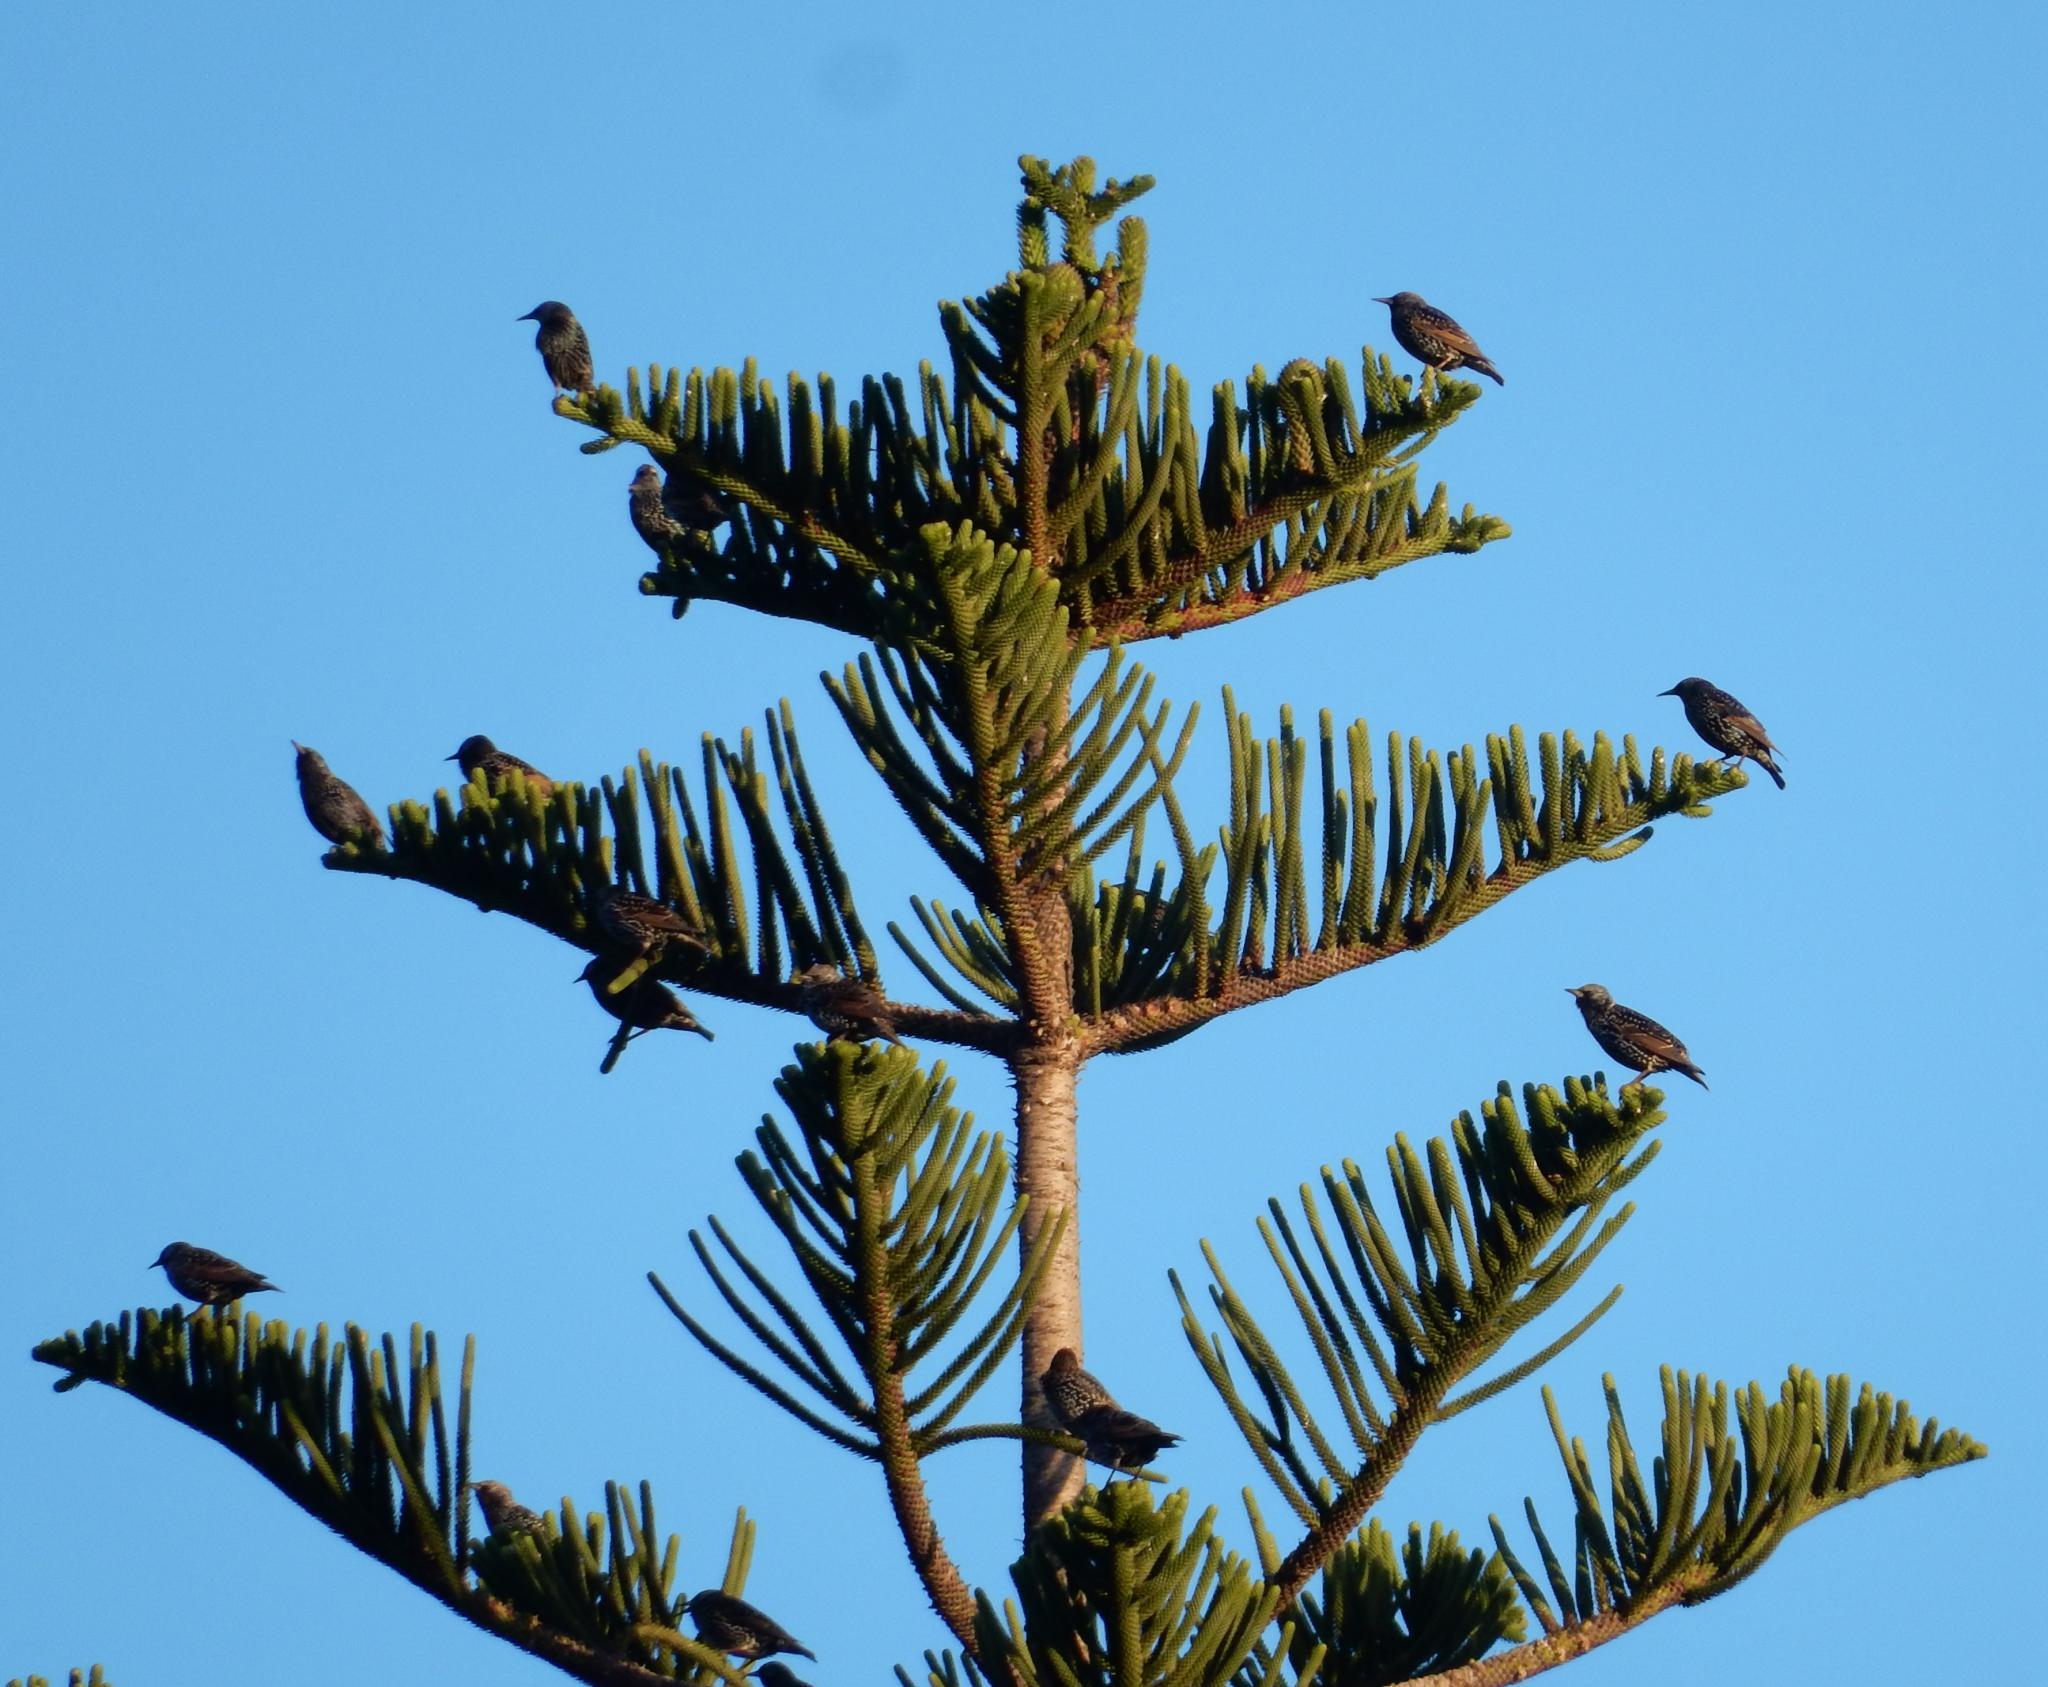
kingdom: Animalia
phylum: Chordata
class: Aves
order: Passeriformes
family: Sturnidae
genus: Sturnus
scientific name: Sturnus vulgaris
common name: Common starling
